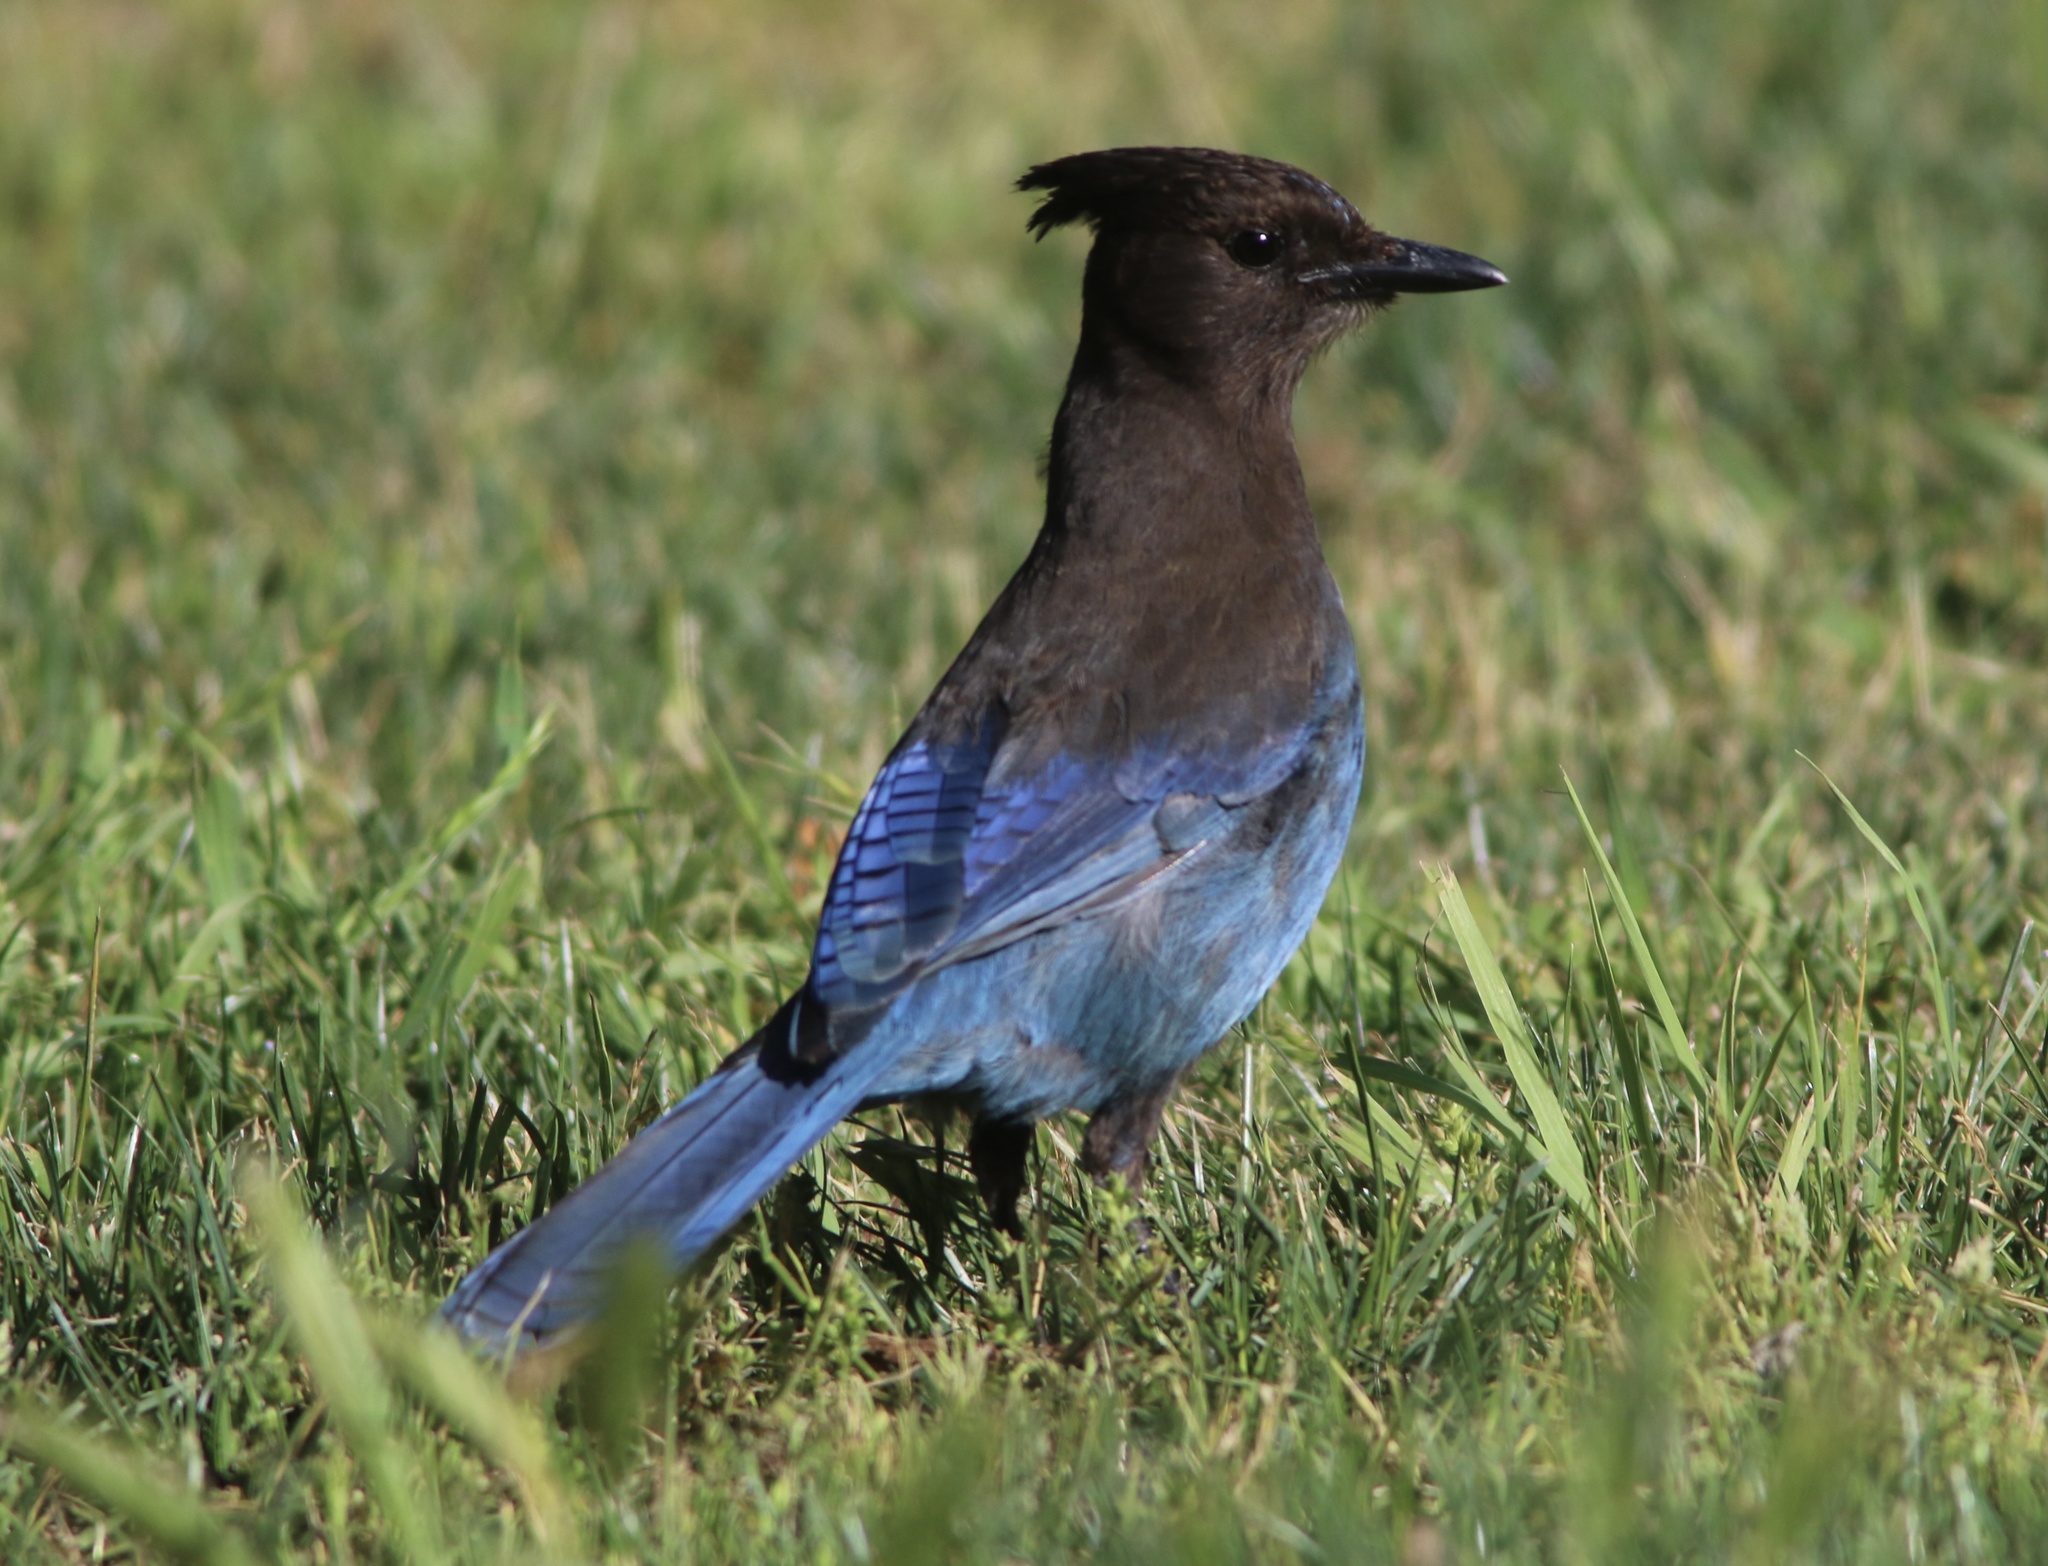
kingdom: Animalia
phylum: Chordata
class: Aves
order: Passeriformes
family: Corvidae
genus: Cyanocitta
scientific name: Cyanocitta stelleri
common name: Steller's jay
